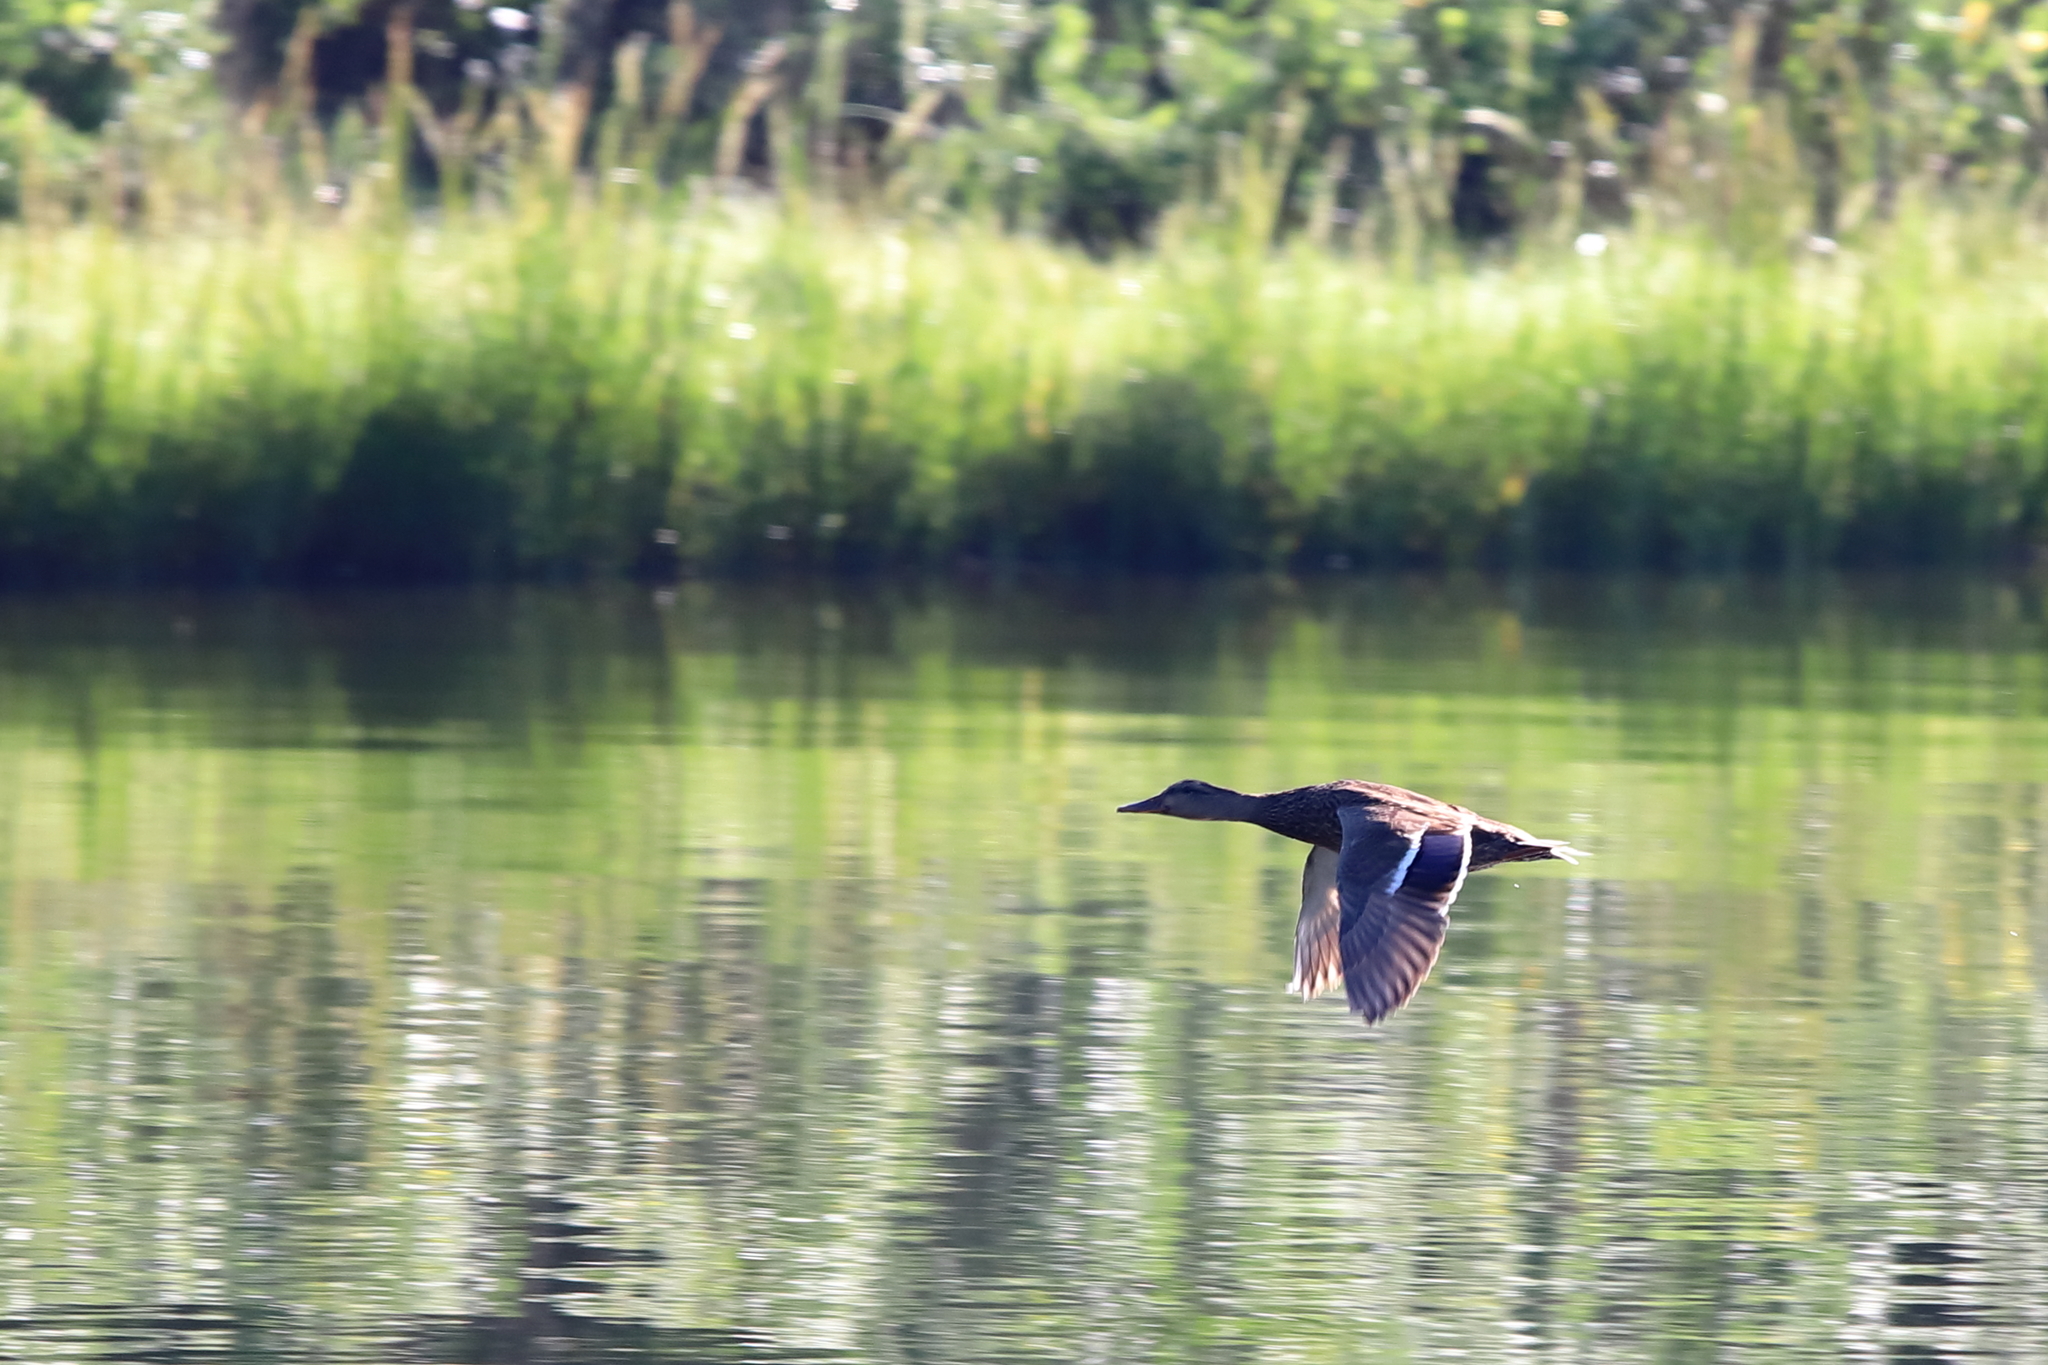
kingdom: Animalia
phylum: Chordata
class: Aves
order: Anseriformes
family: Anatidae
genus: Anas
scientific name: Anas platyrhynchos
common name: Mallard
